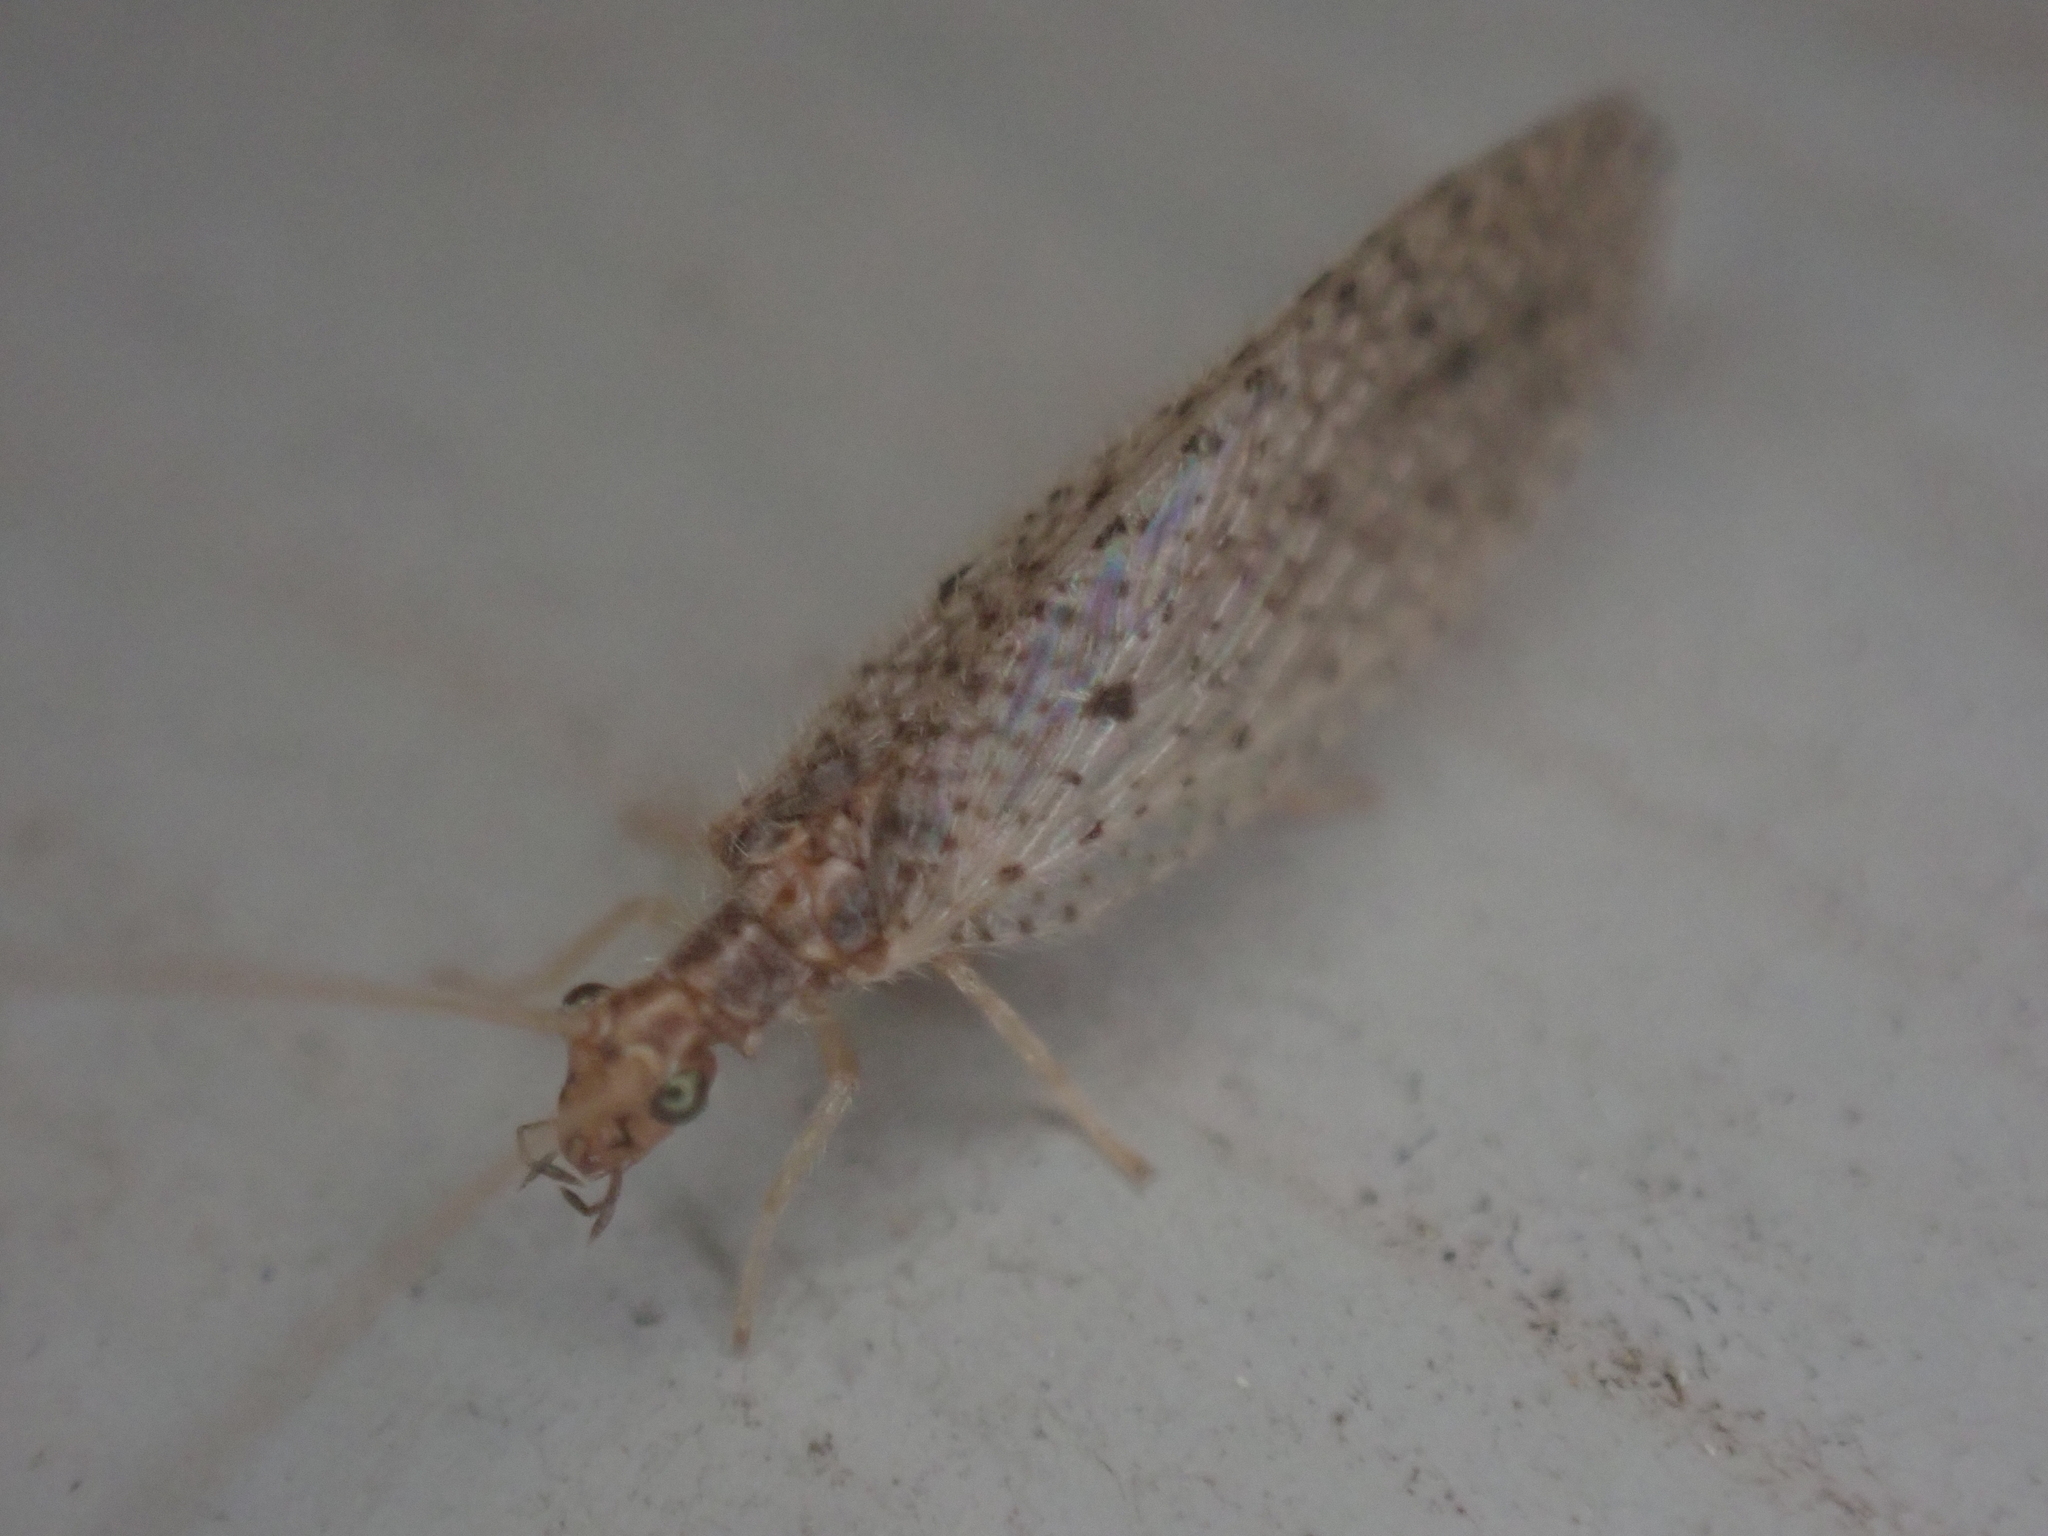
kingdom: Animalia
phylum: Arthropoda
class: Insecta
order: Neuroptera
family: Hemerobiidae
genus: Micromus
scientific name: Micromus subanticus
